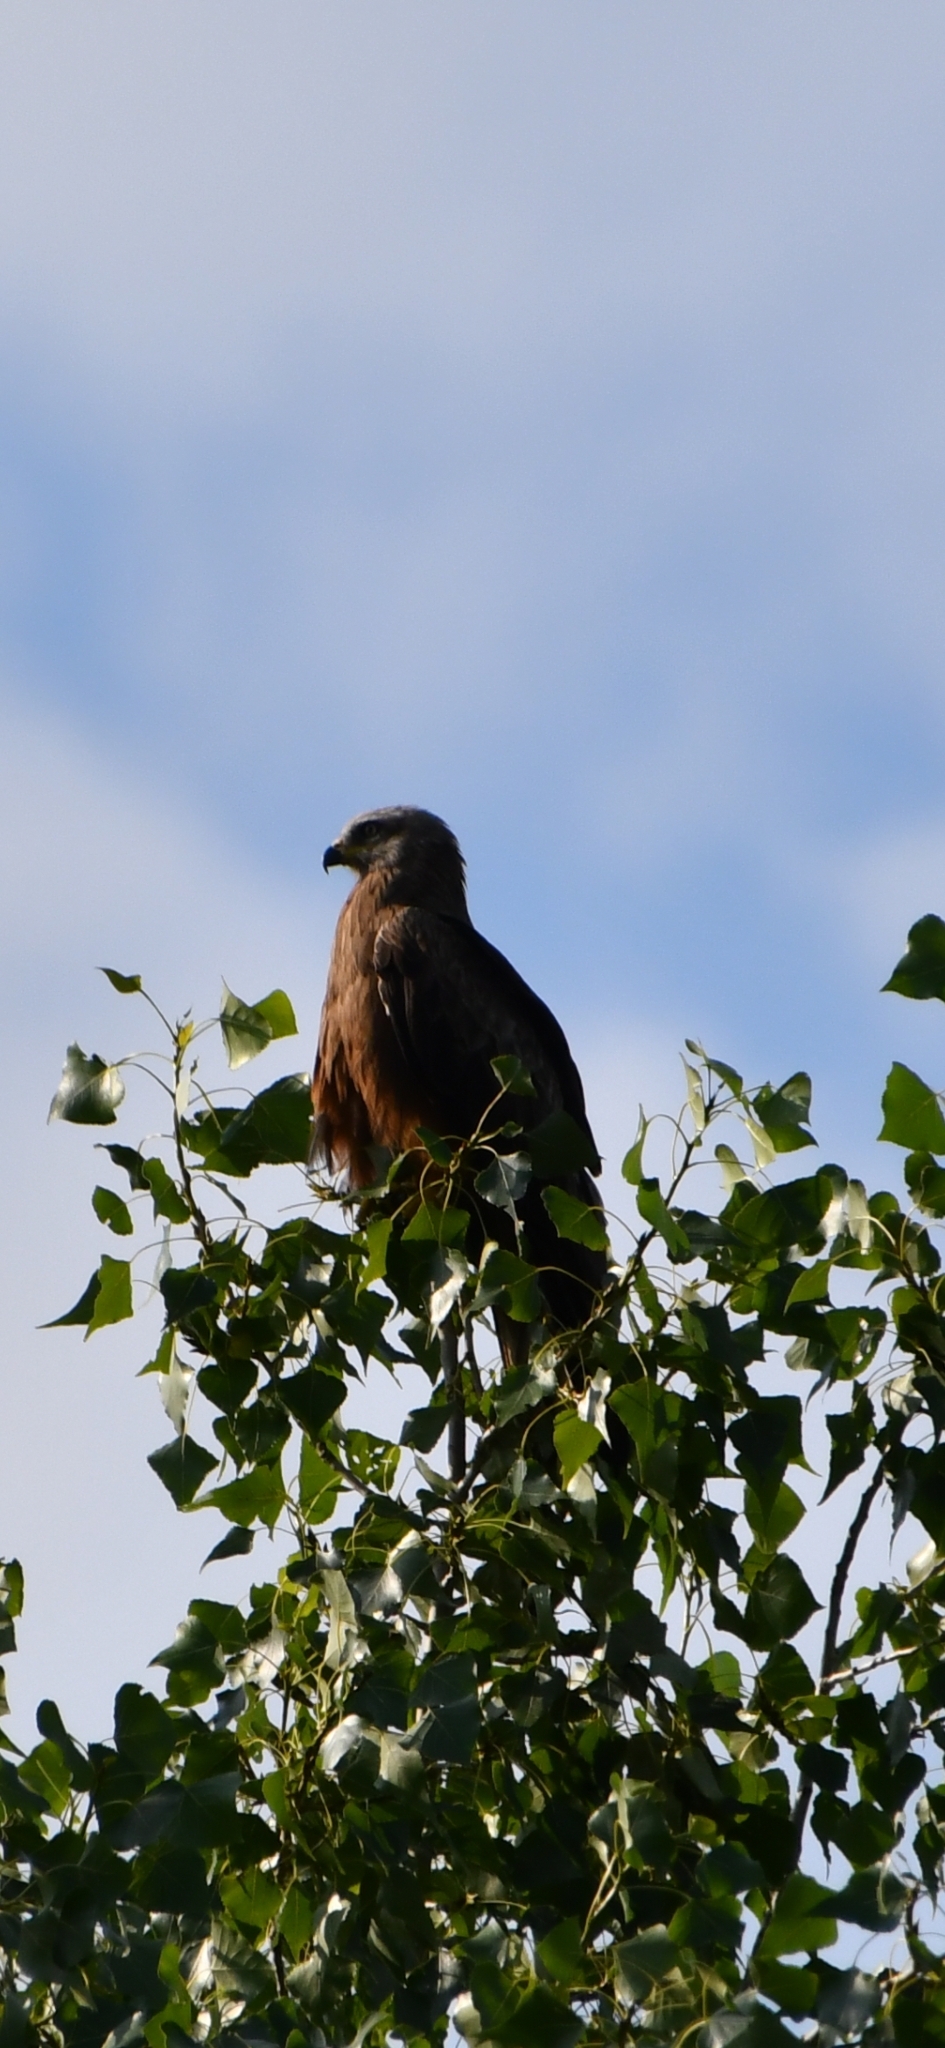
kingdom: Animalia
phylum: Chordata
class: Aves
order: Accipitriformes
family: Accipitridae
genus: Milvus
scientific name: Milvus migrans
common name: Black kite
